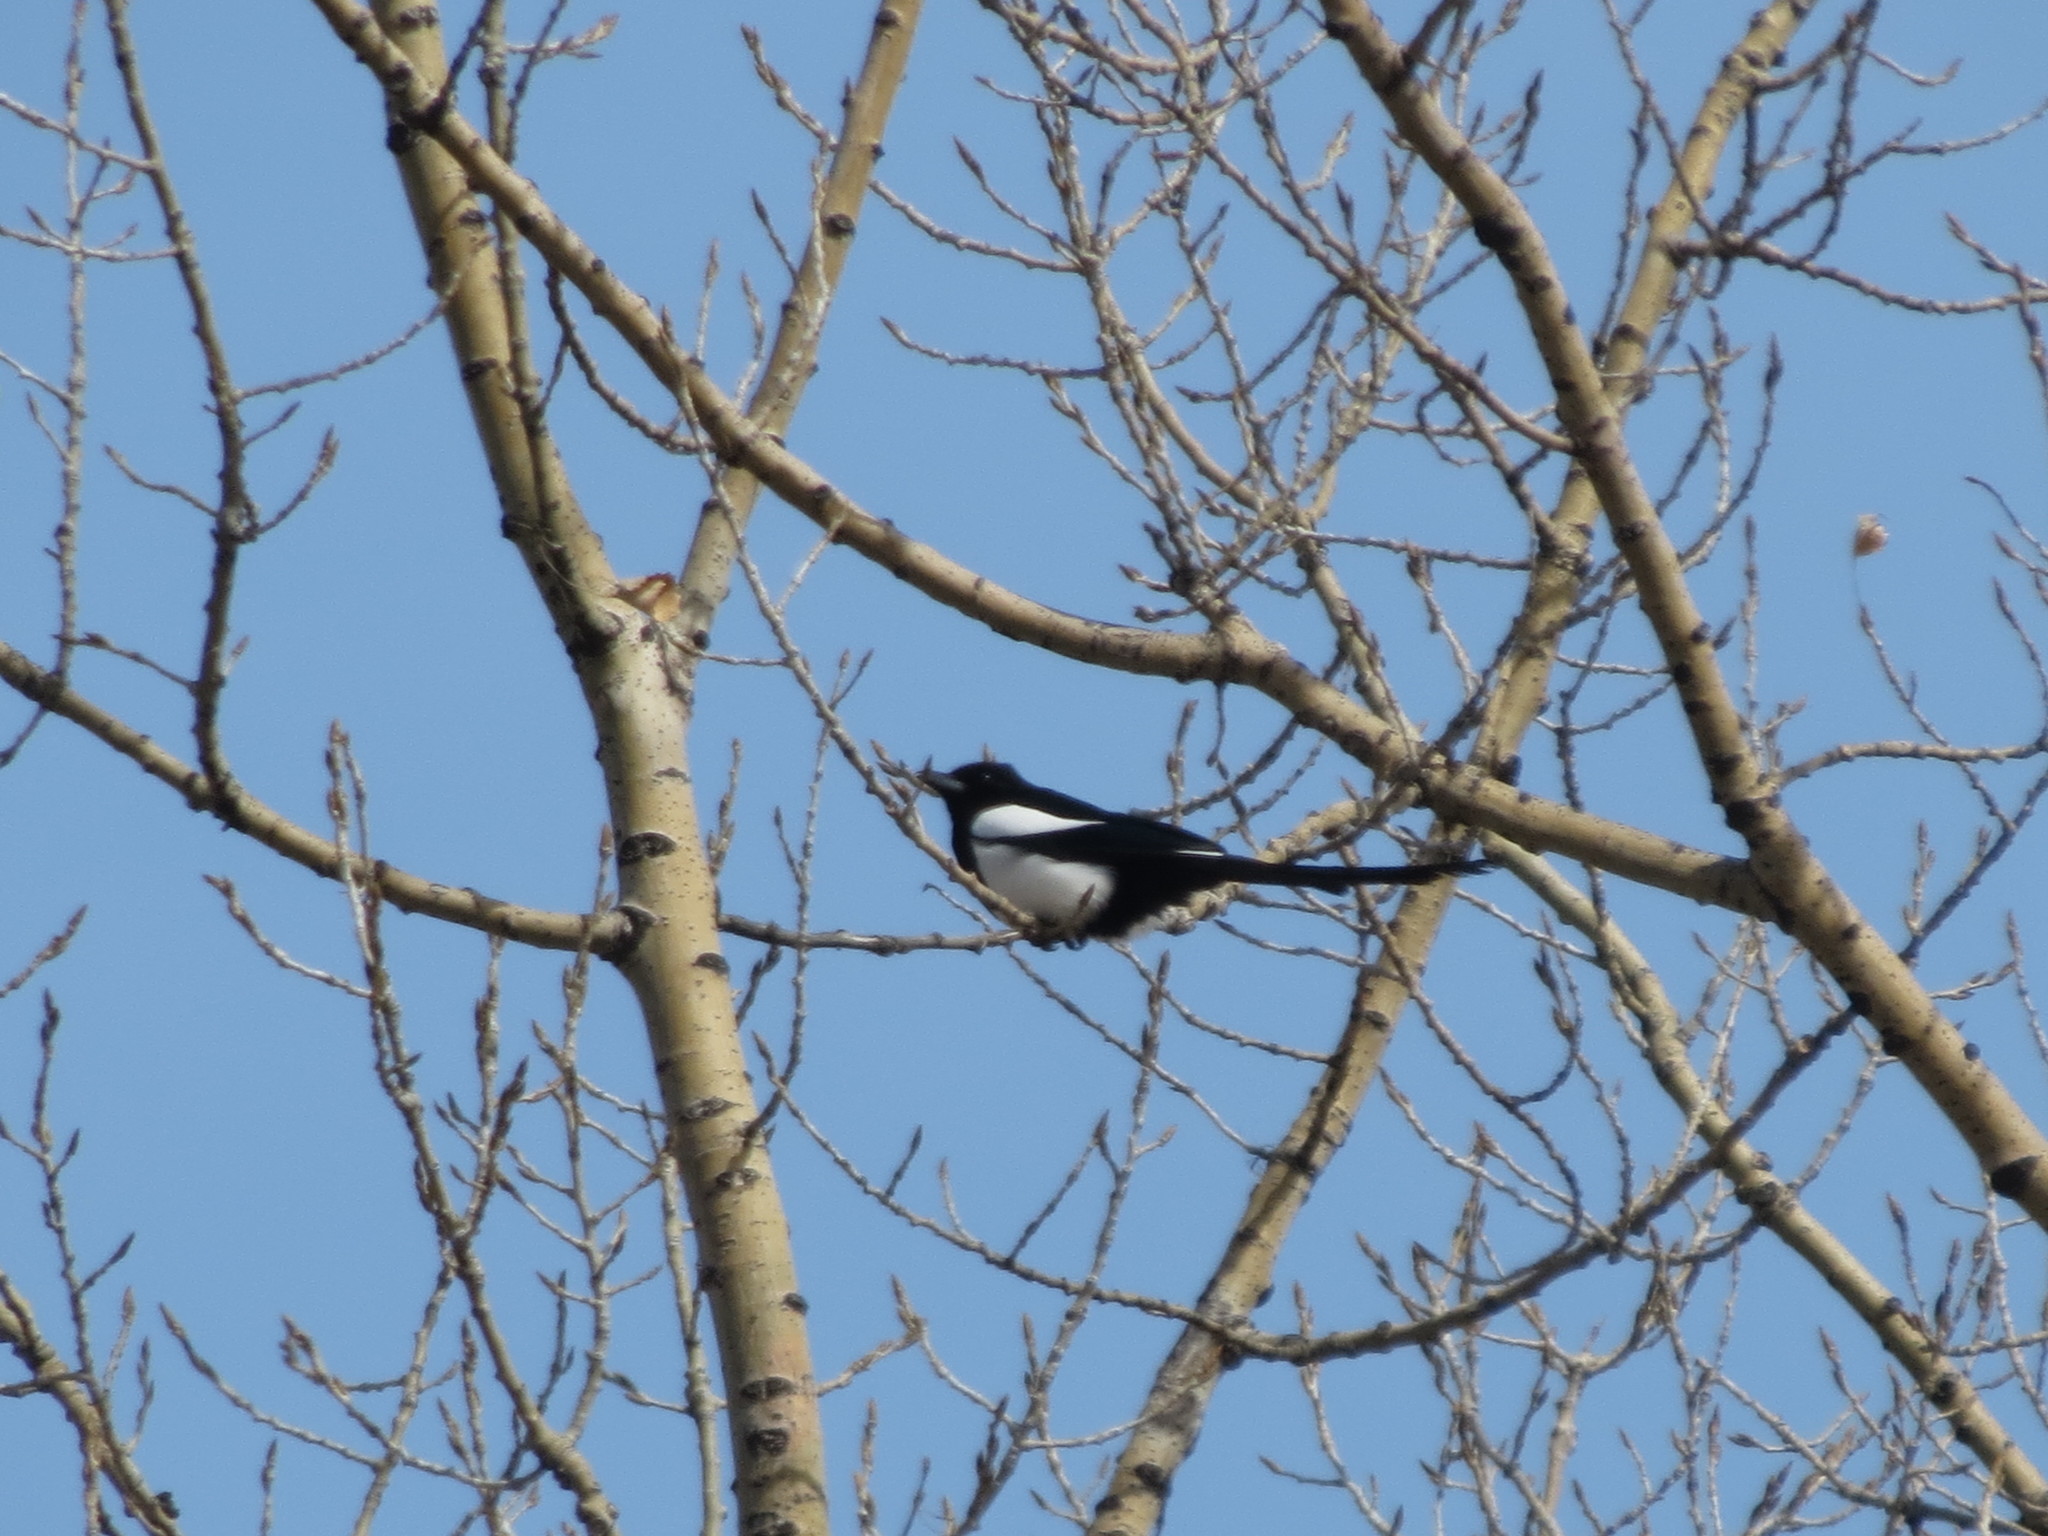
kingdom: Animalia
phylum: Chordata
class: Aves
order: Passeriformes
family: Corvidae
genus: Pica
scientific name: Pica hudsonia
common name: Black-billed magpie
